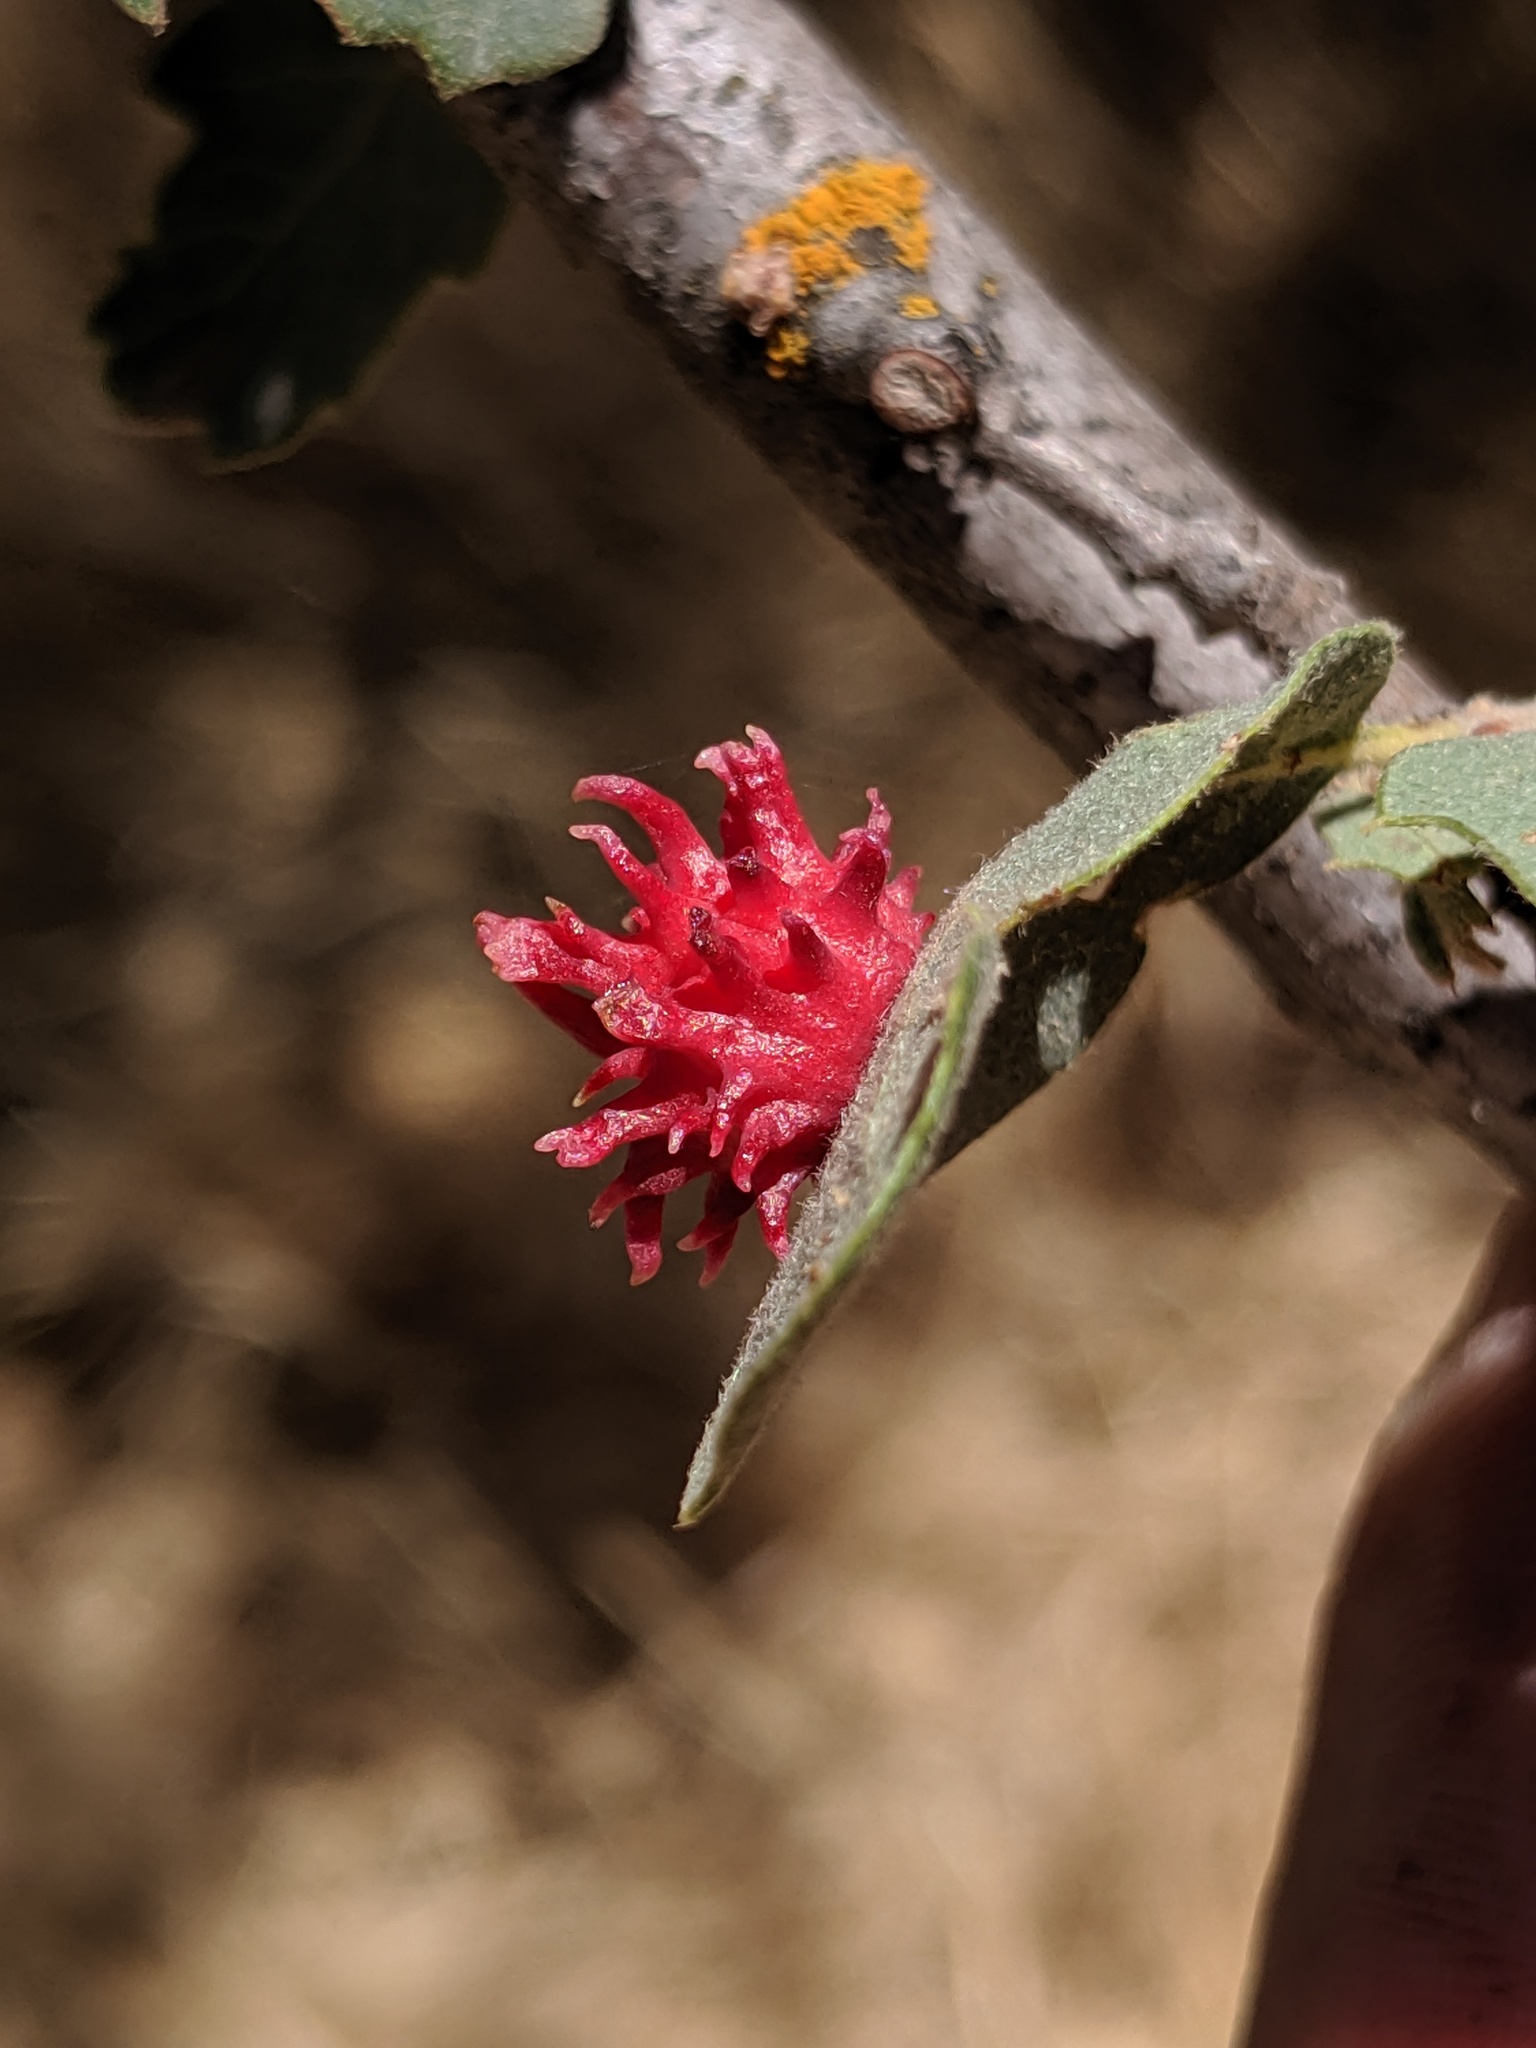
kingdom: Animalia
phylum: Arthropoda
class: Insecta
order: Hymenoptera
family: Cynipidae
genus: Cynips
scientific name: Cynips
